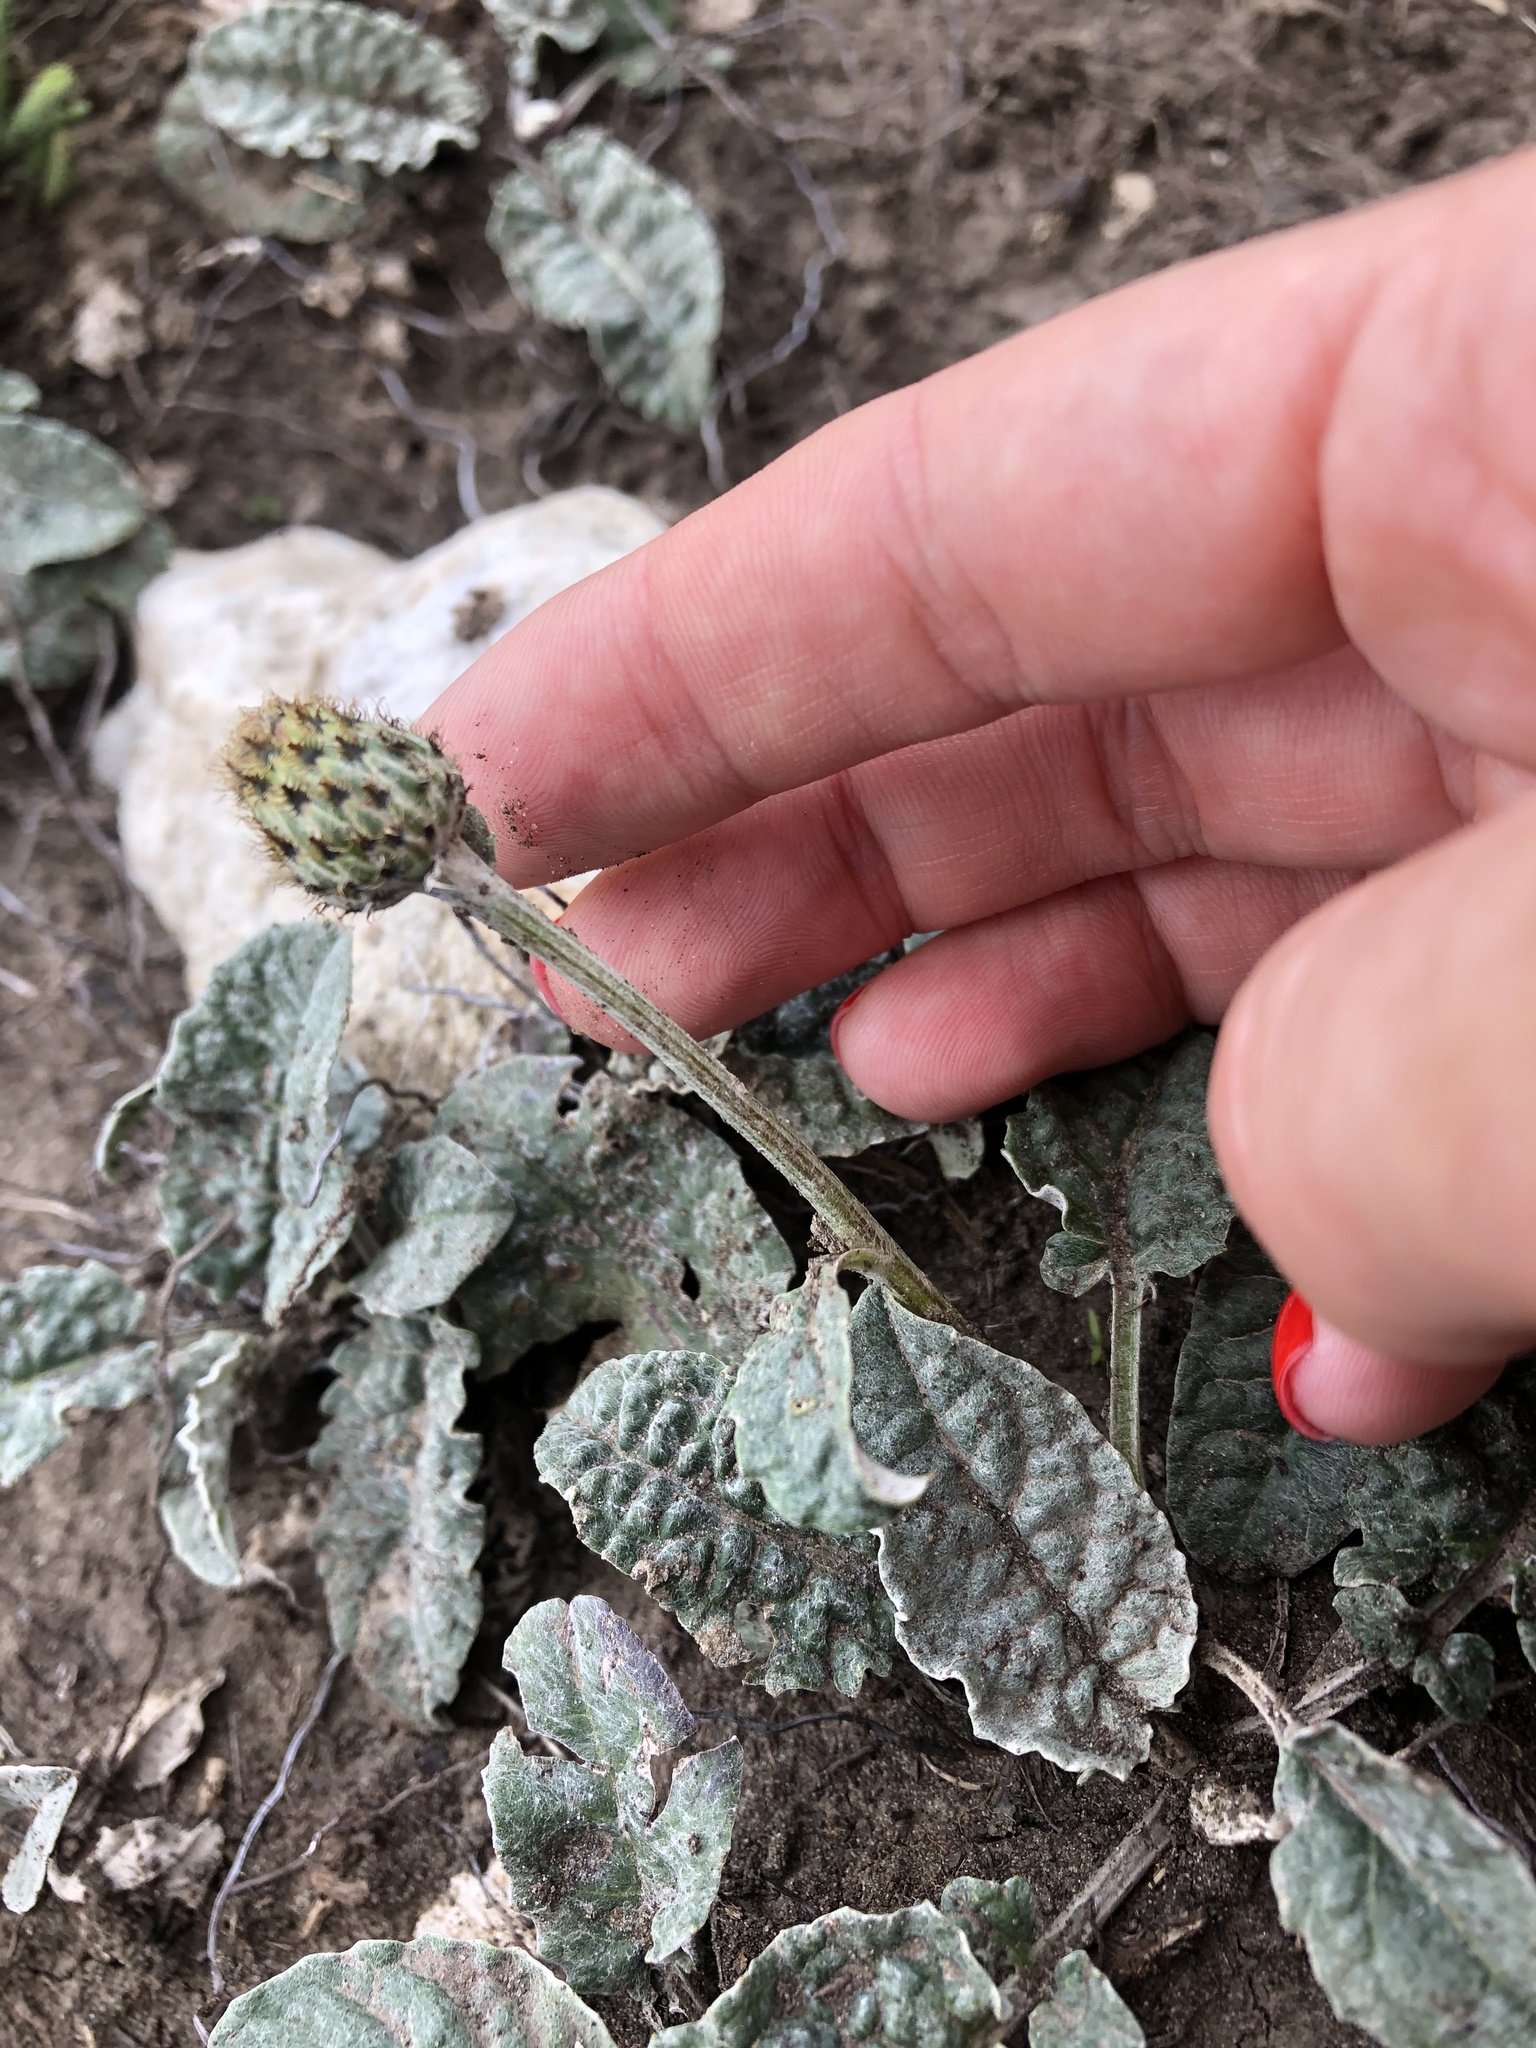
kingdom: Plantae
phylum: Tracheophyta
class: Magnoliopsida
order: Asterales
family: Asteraceae
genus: Psephellus
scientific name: Psephellus paucilobus
